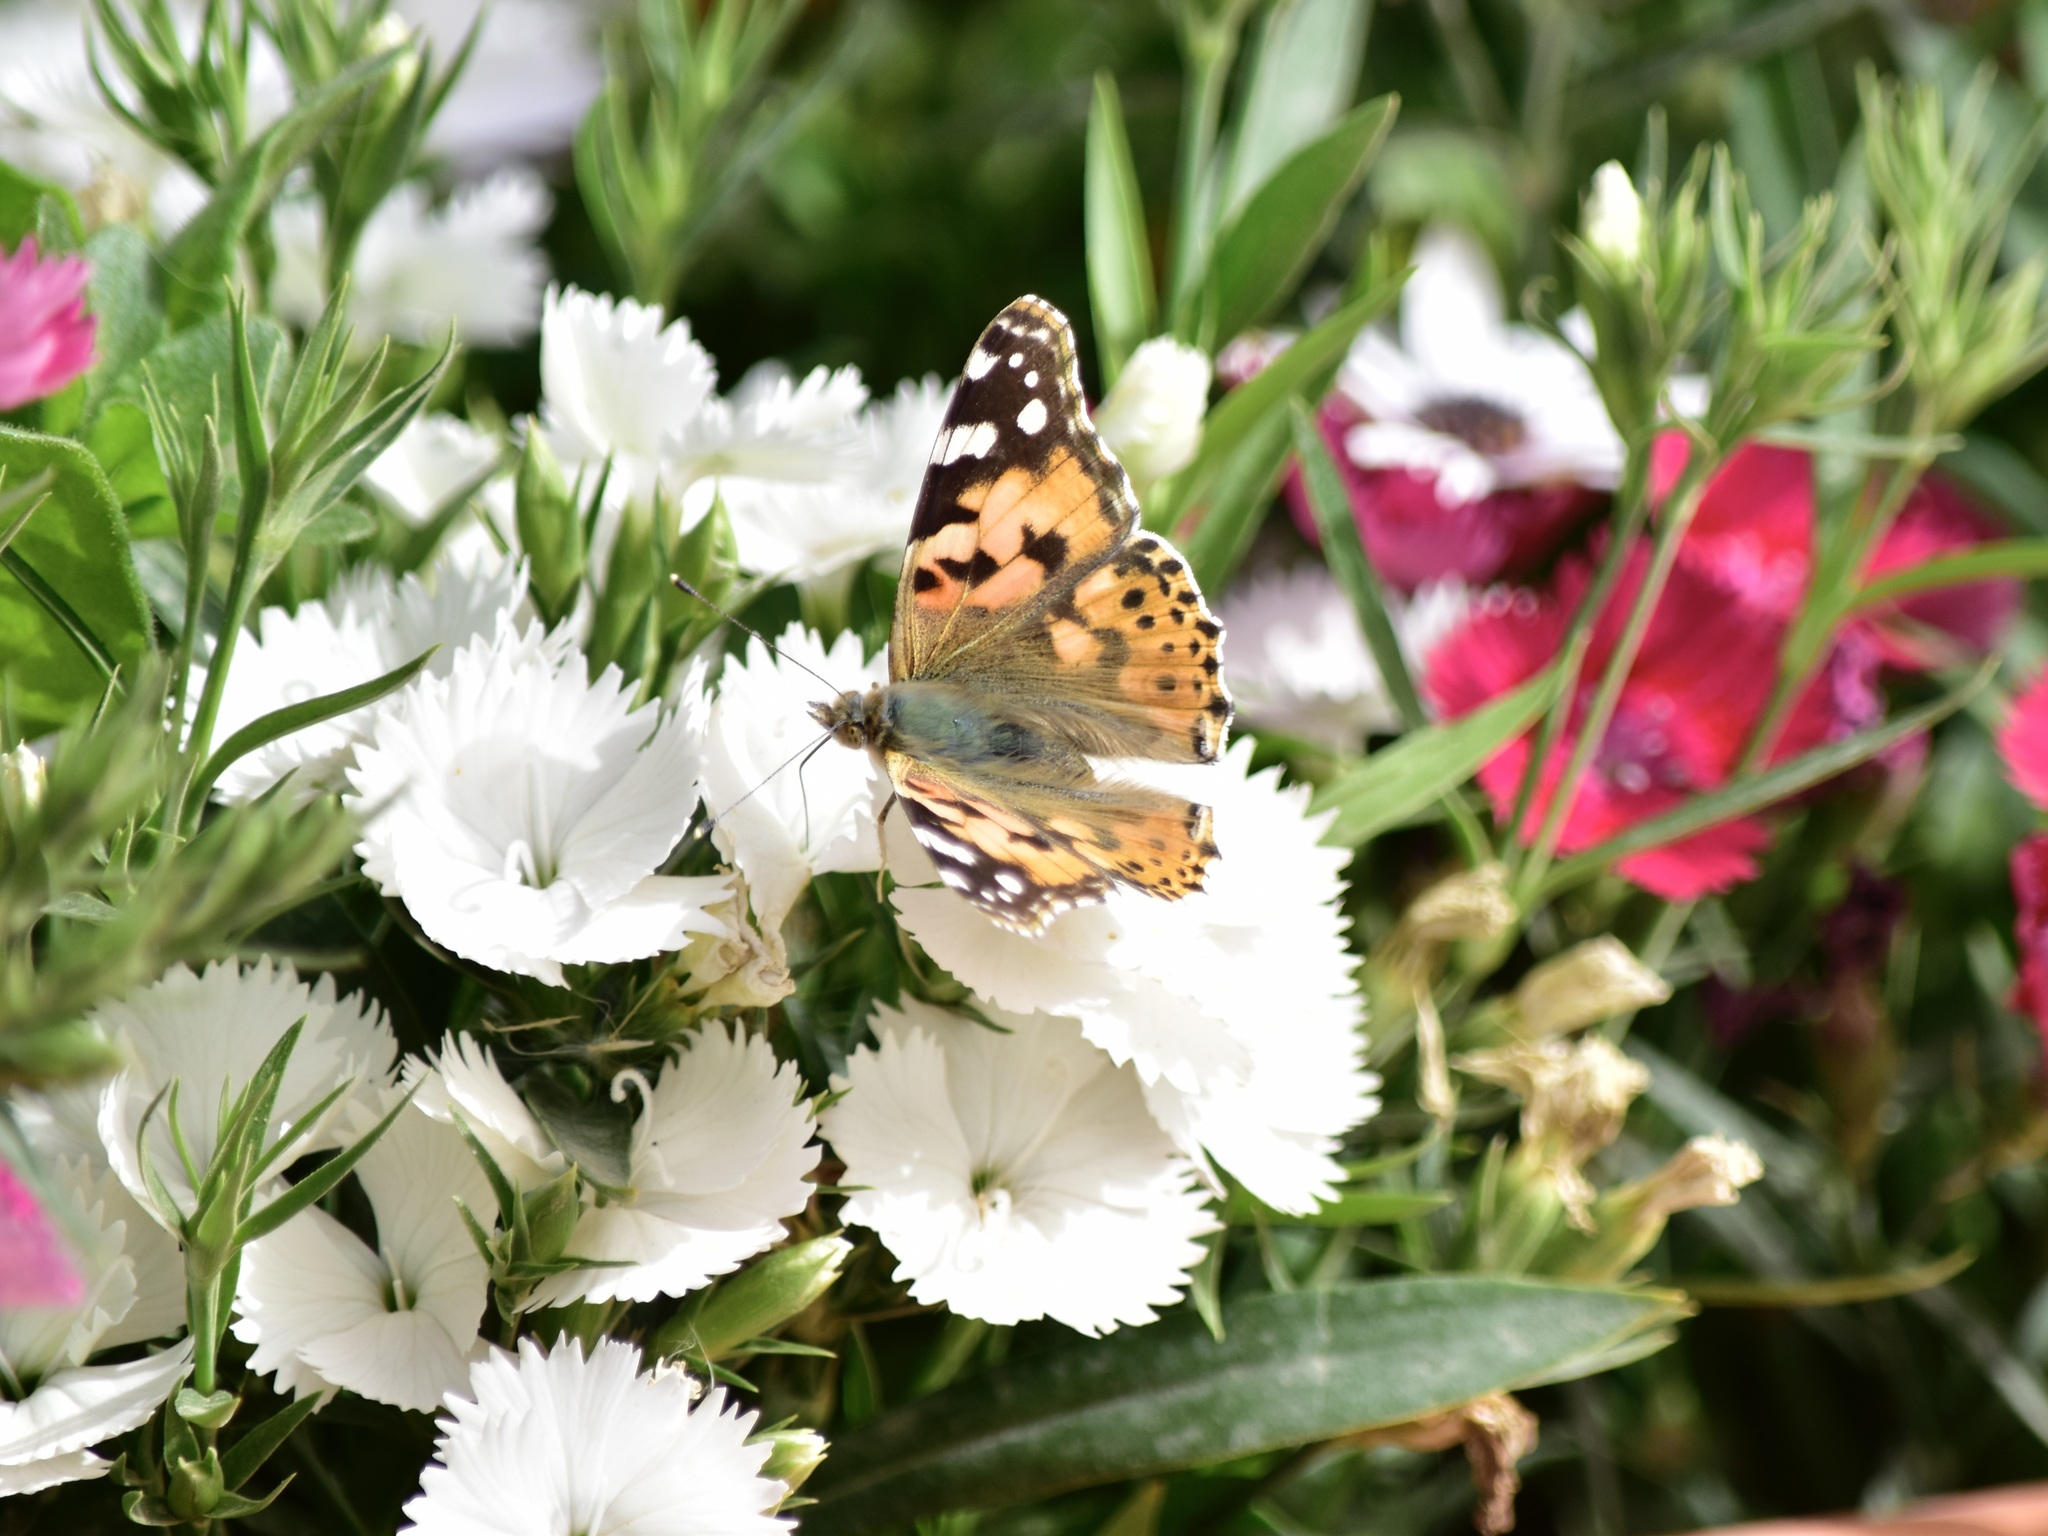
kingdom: Animalia
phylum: Arthropoda
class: Insecta
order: Lepidoptera
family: Nymphalidae
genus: Vanessa
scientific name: Vanessa cardui
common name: Painted lady
